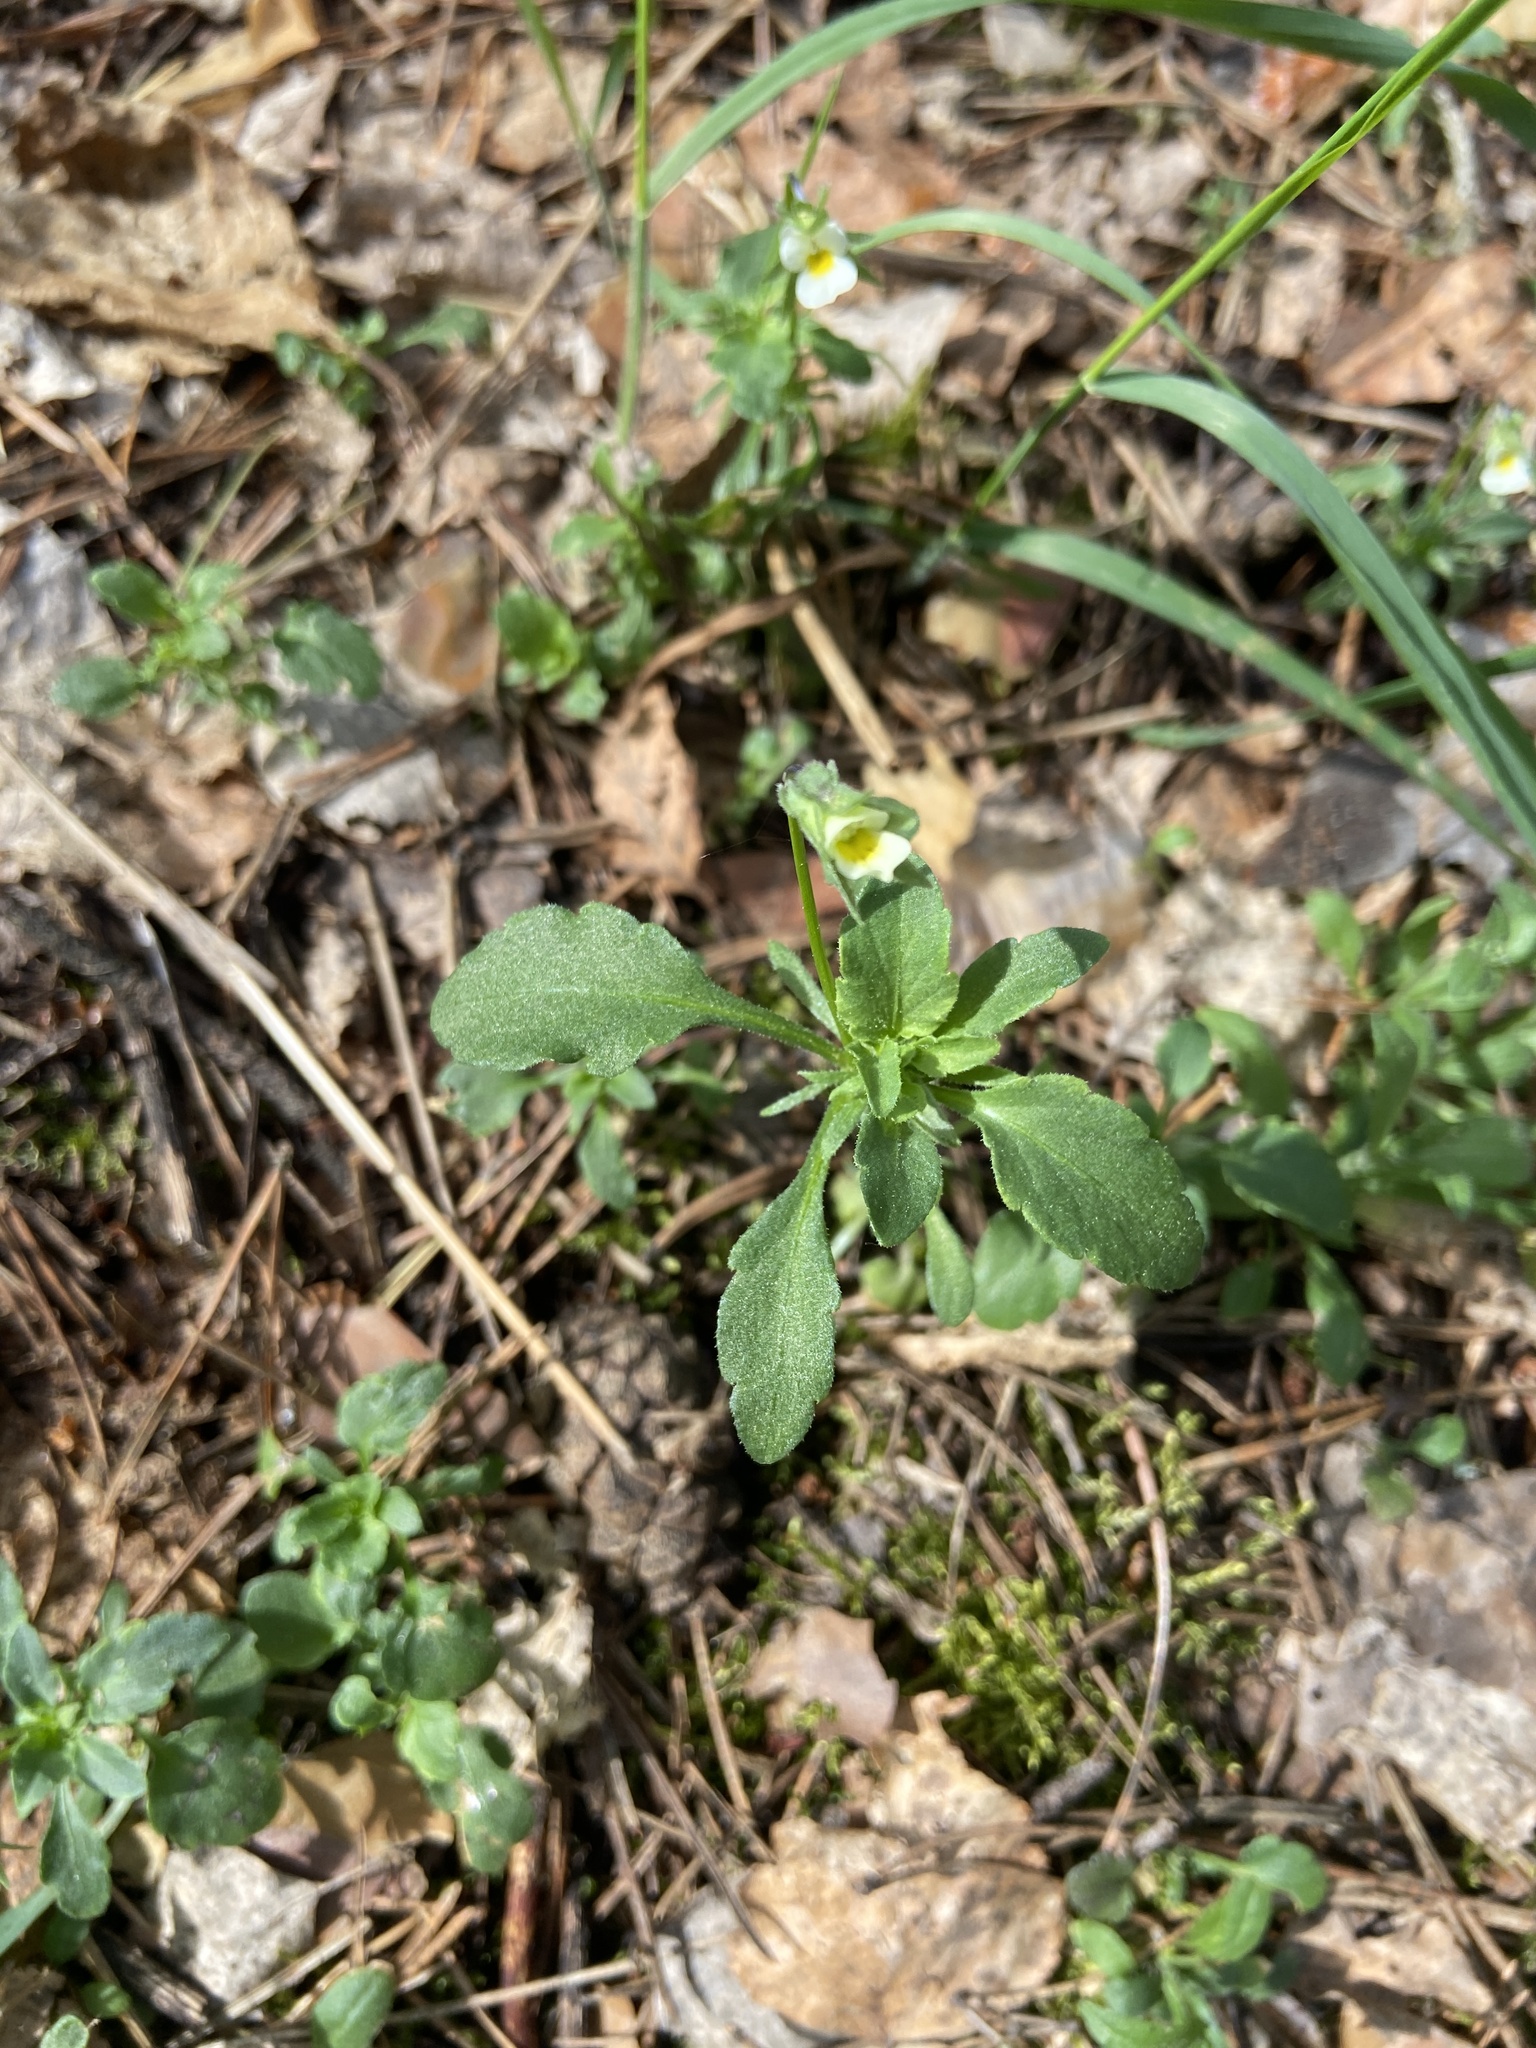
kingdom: Plantae
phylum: Tracheophyta
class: Magnoliopsida
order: Malpighiales
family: Violaceae
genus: Viola
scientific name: Viola arvensis
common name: Field pansy
